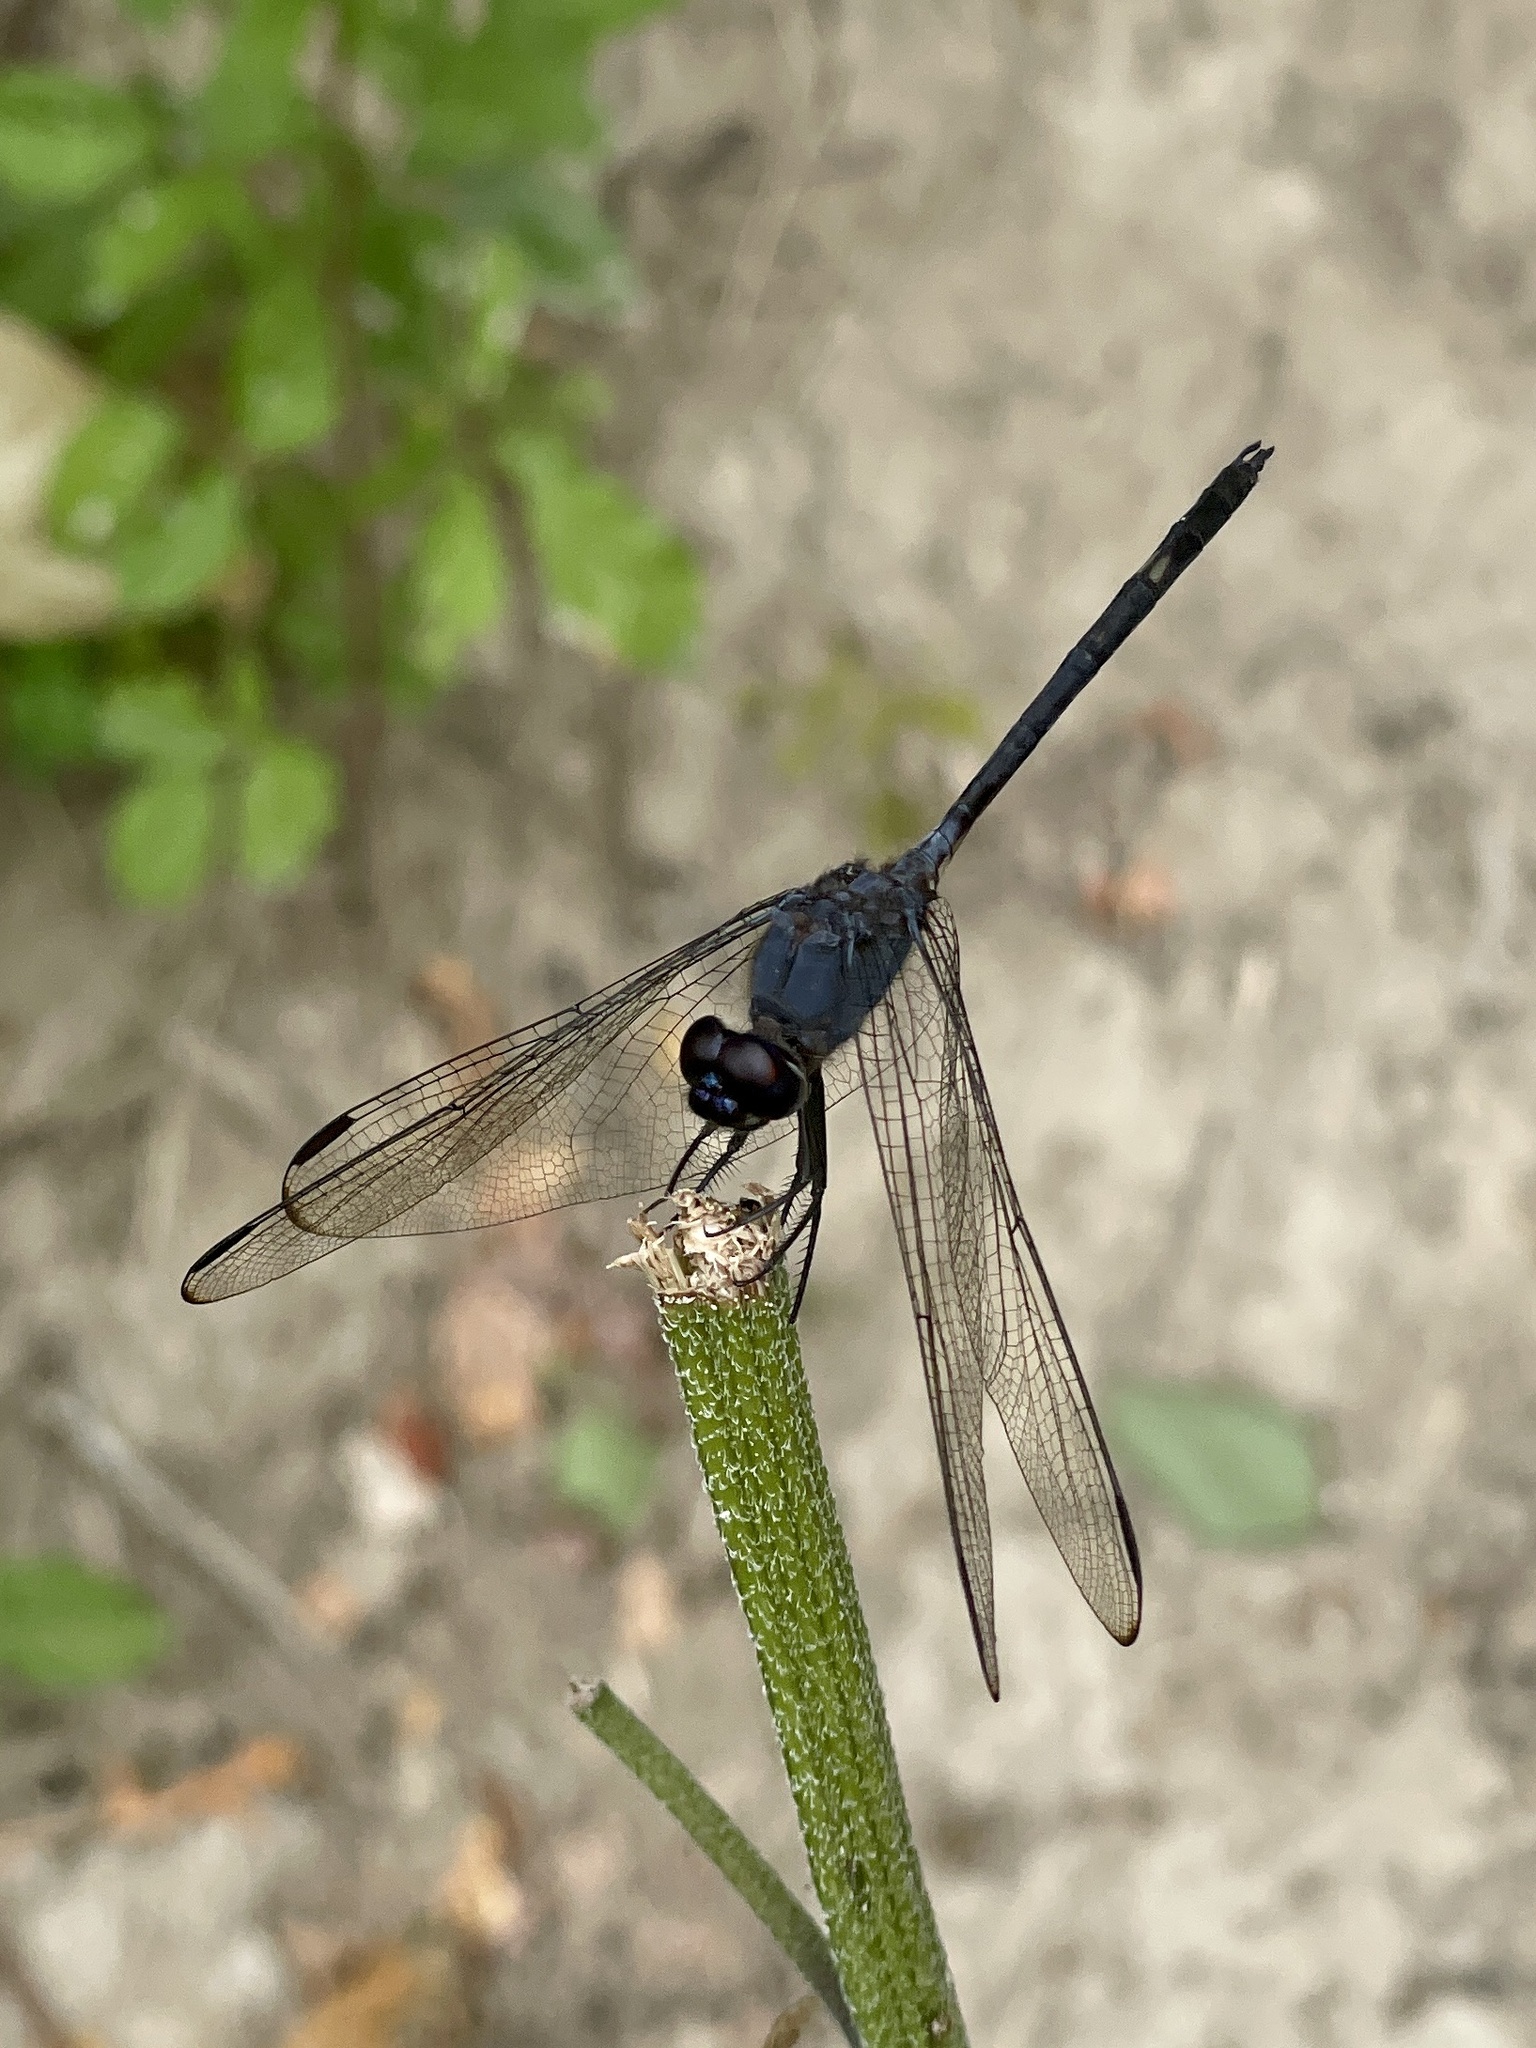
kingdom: Animalia
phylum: Arthropoda
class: Insecta
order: Odonata
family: Libellulidae
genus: Dythemis
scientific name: Dythemis nigrescens
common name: Black setwing
